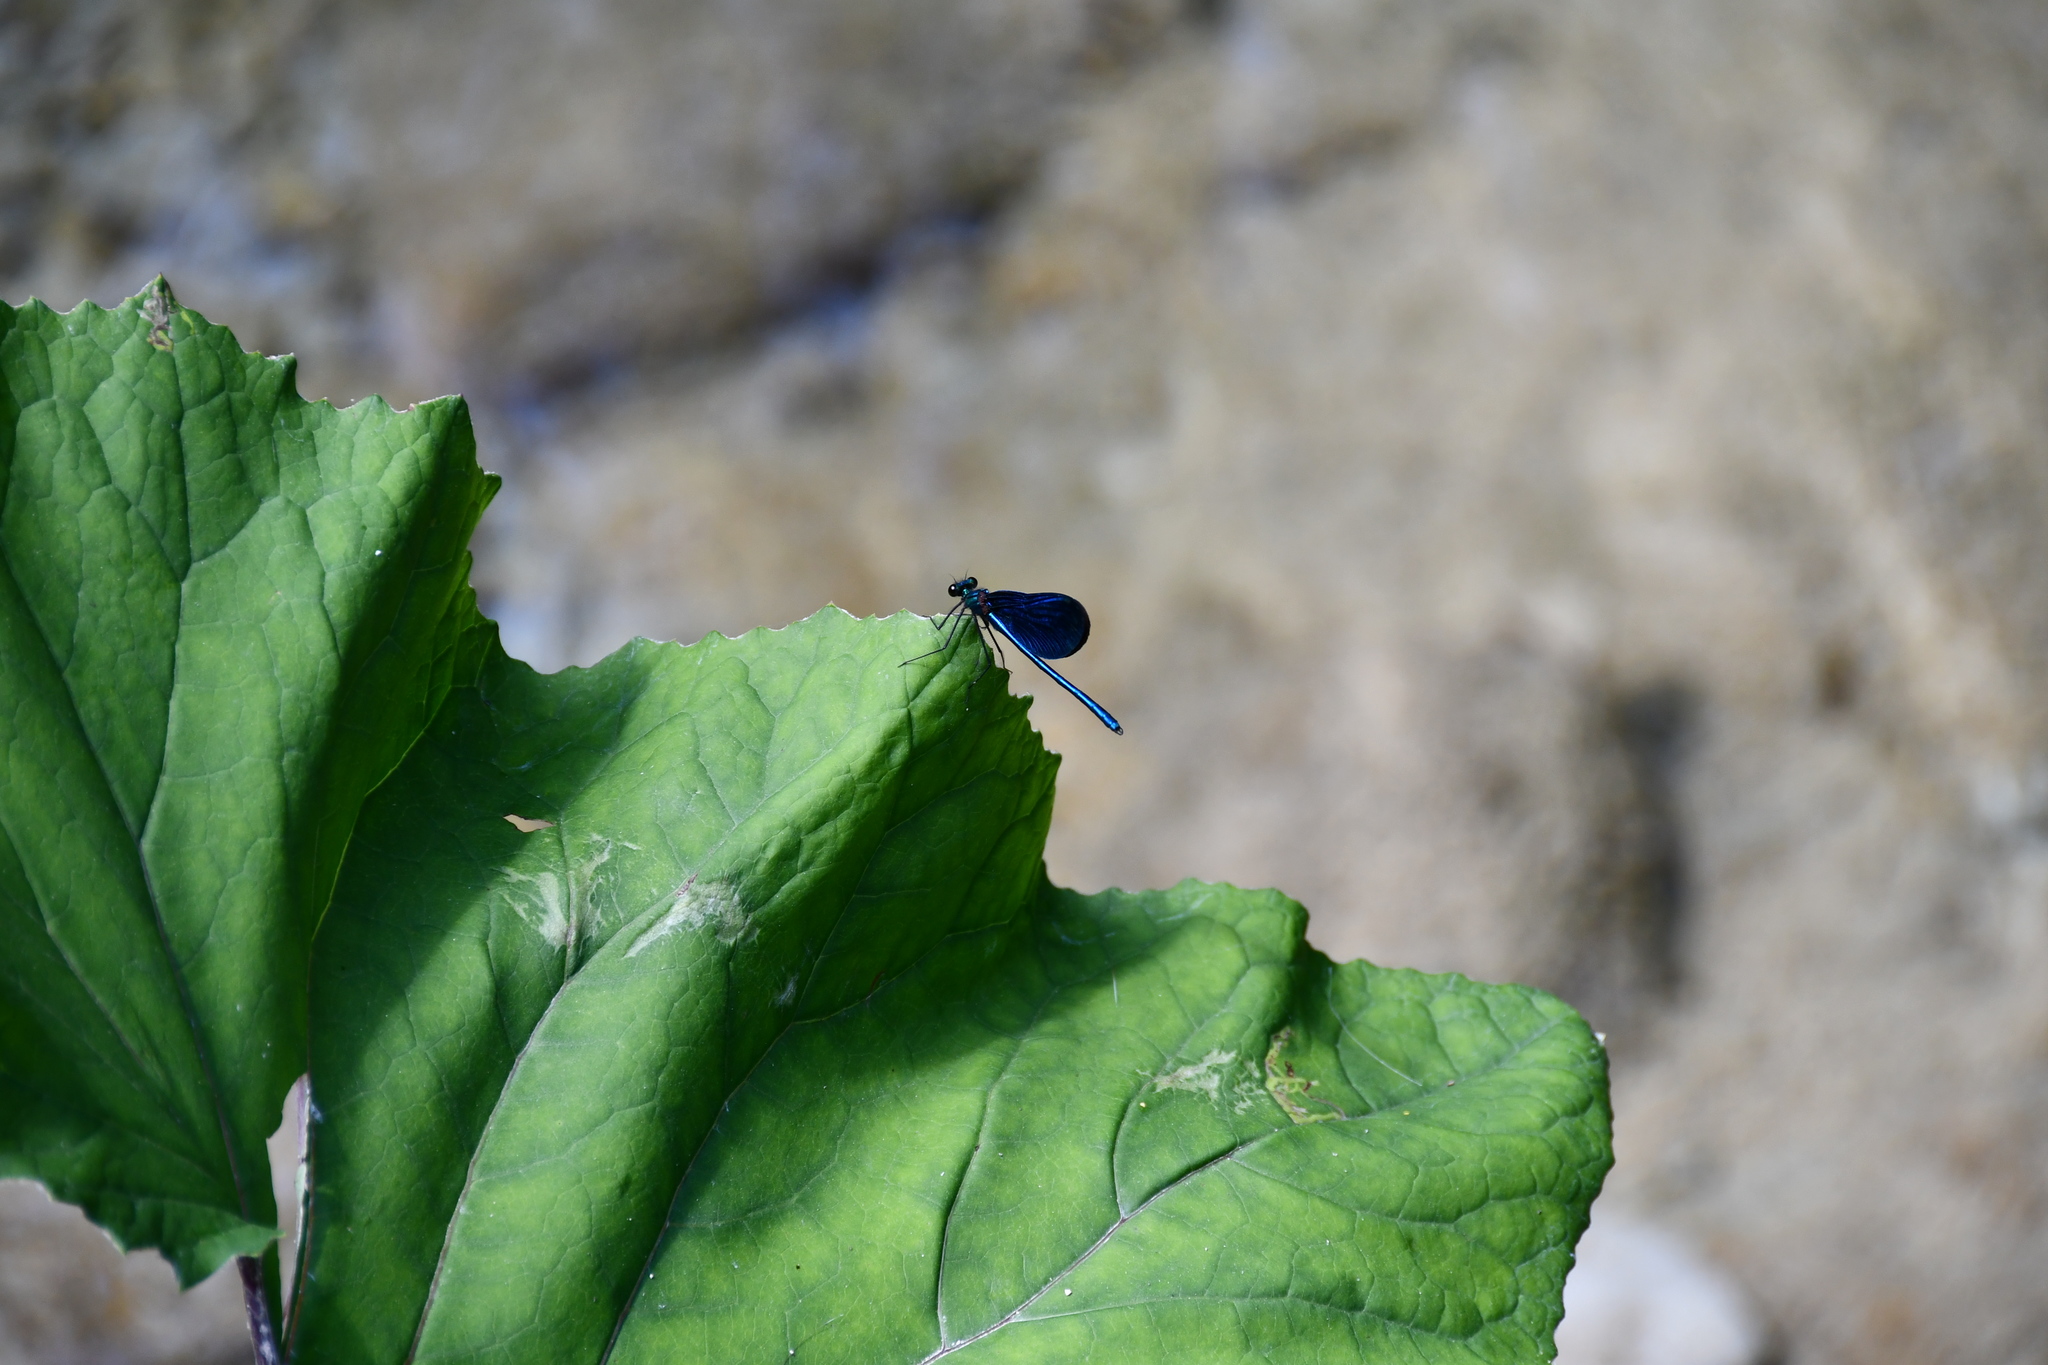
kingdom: Animalia
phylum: Arthropoda
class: Insecta
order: Odonata
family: Calopterygidae
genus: Calopteryx
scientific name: Calopteryx virgo
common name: Beautiful demoiselle
